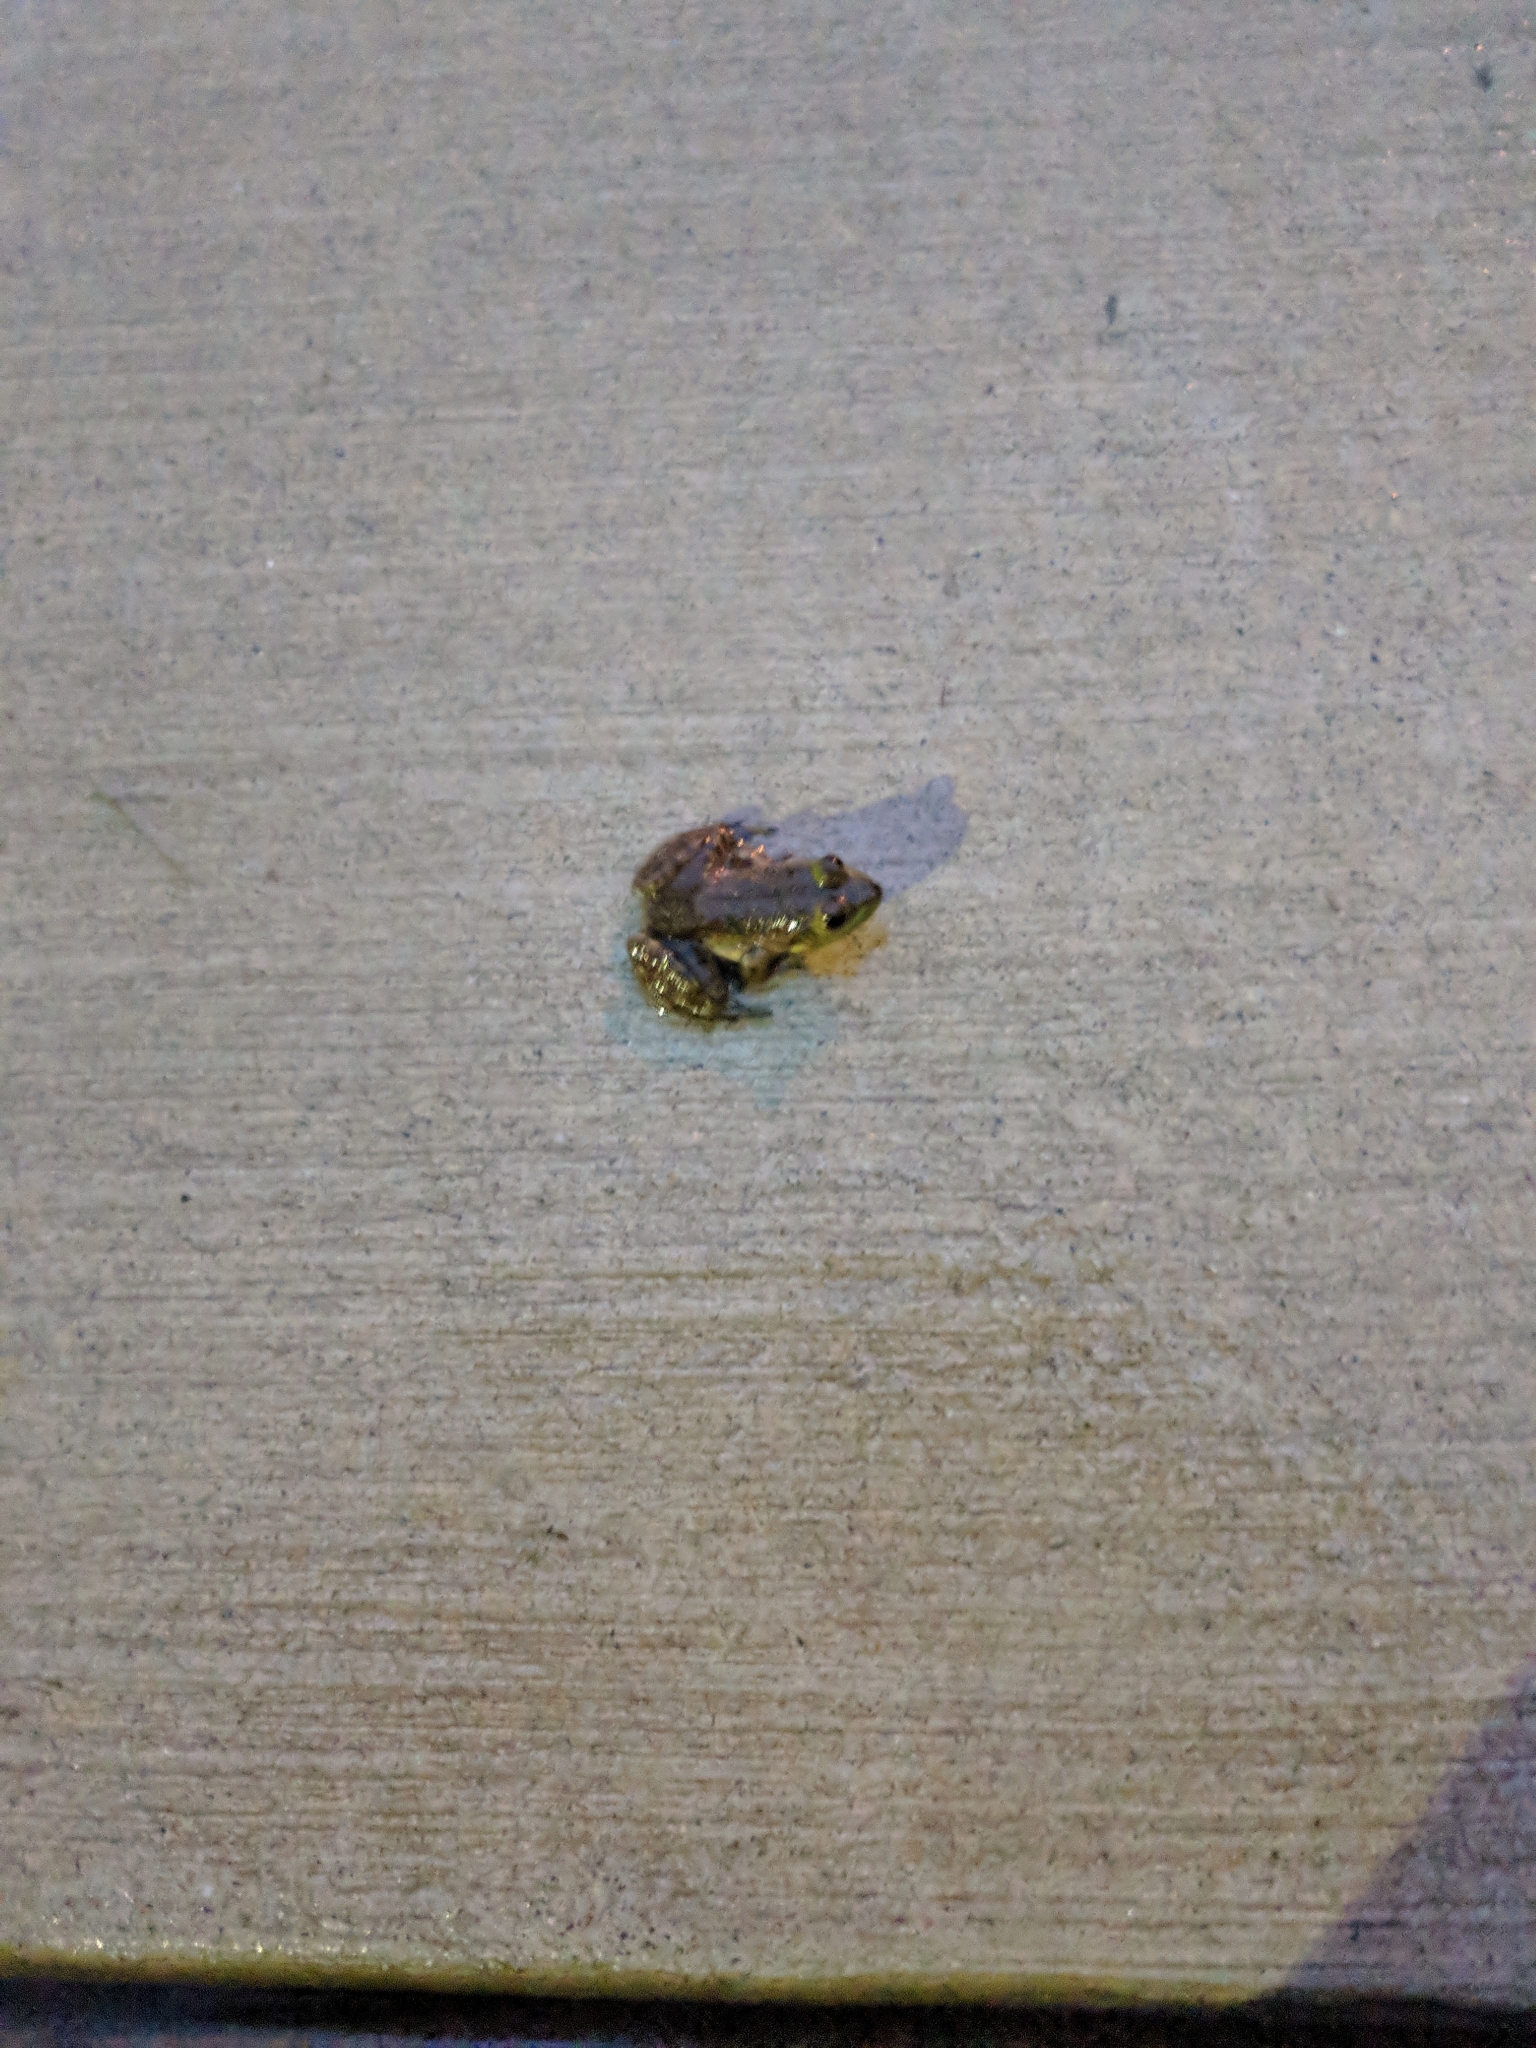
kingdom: Animalia
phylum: Chordata
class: Amphibia
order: Anura
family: Ranidae
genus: Lithobates
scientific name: Lithobates catesbeianus
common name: American bullfrog
